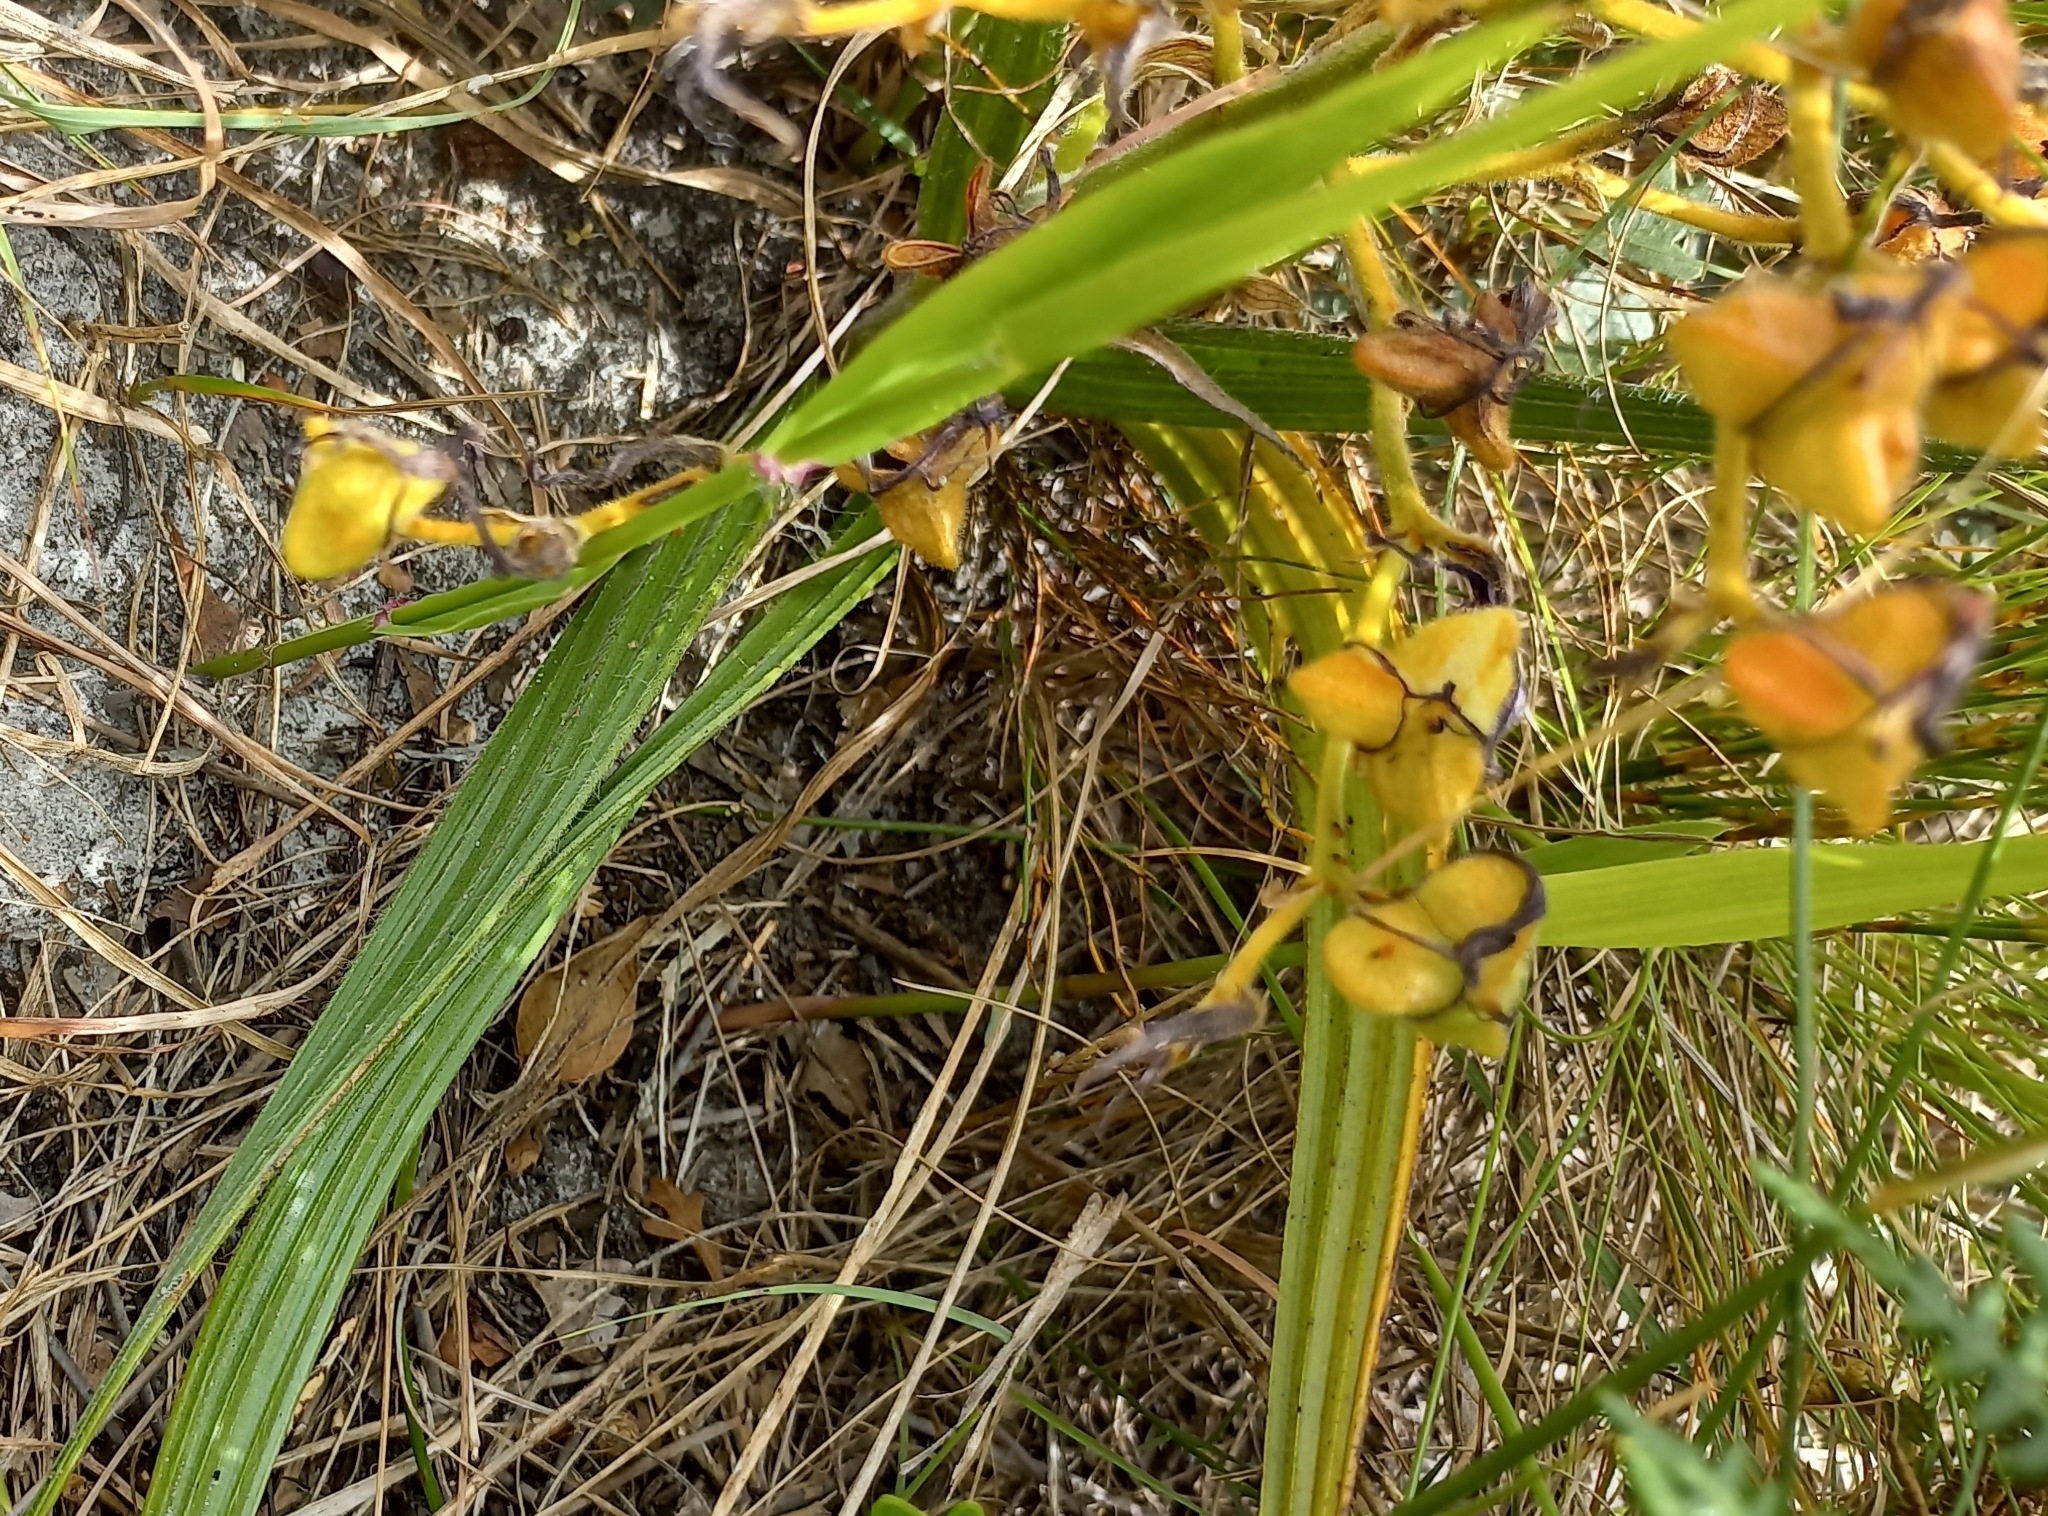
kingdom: Plantae
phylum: Tracheophyta
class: Liliopsida
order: Commelinales
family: Haemodoraceae
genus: Wachendorfia
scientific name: Wachendorfia paniculata
